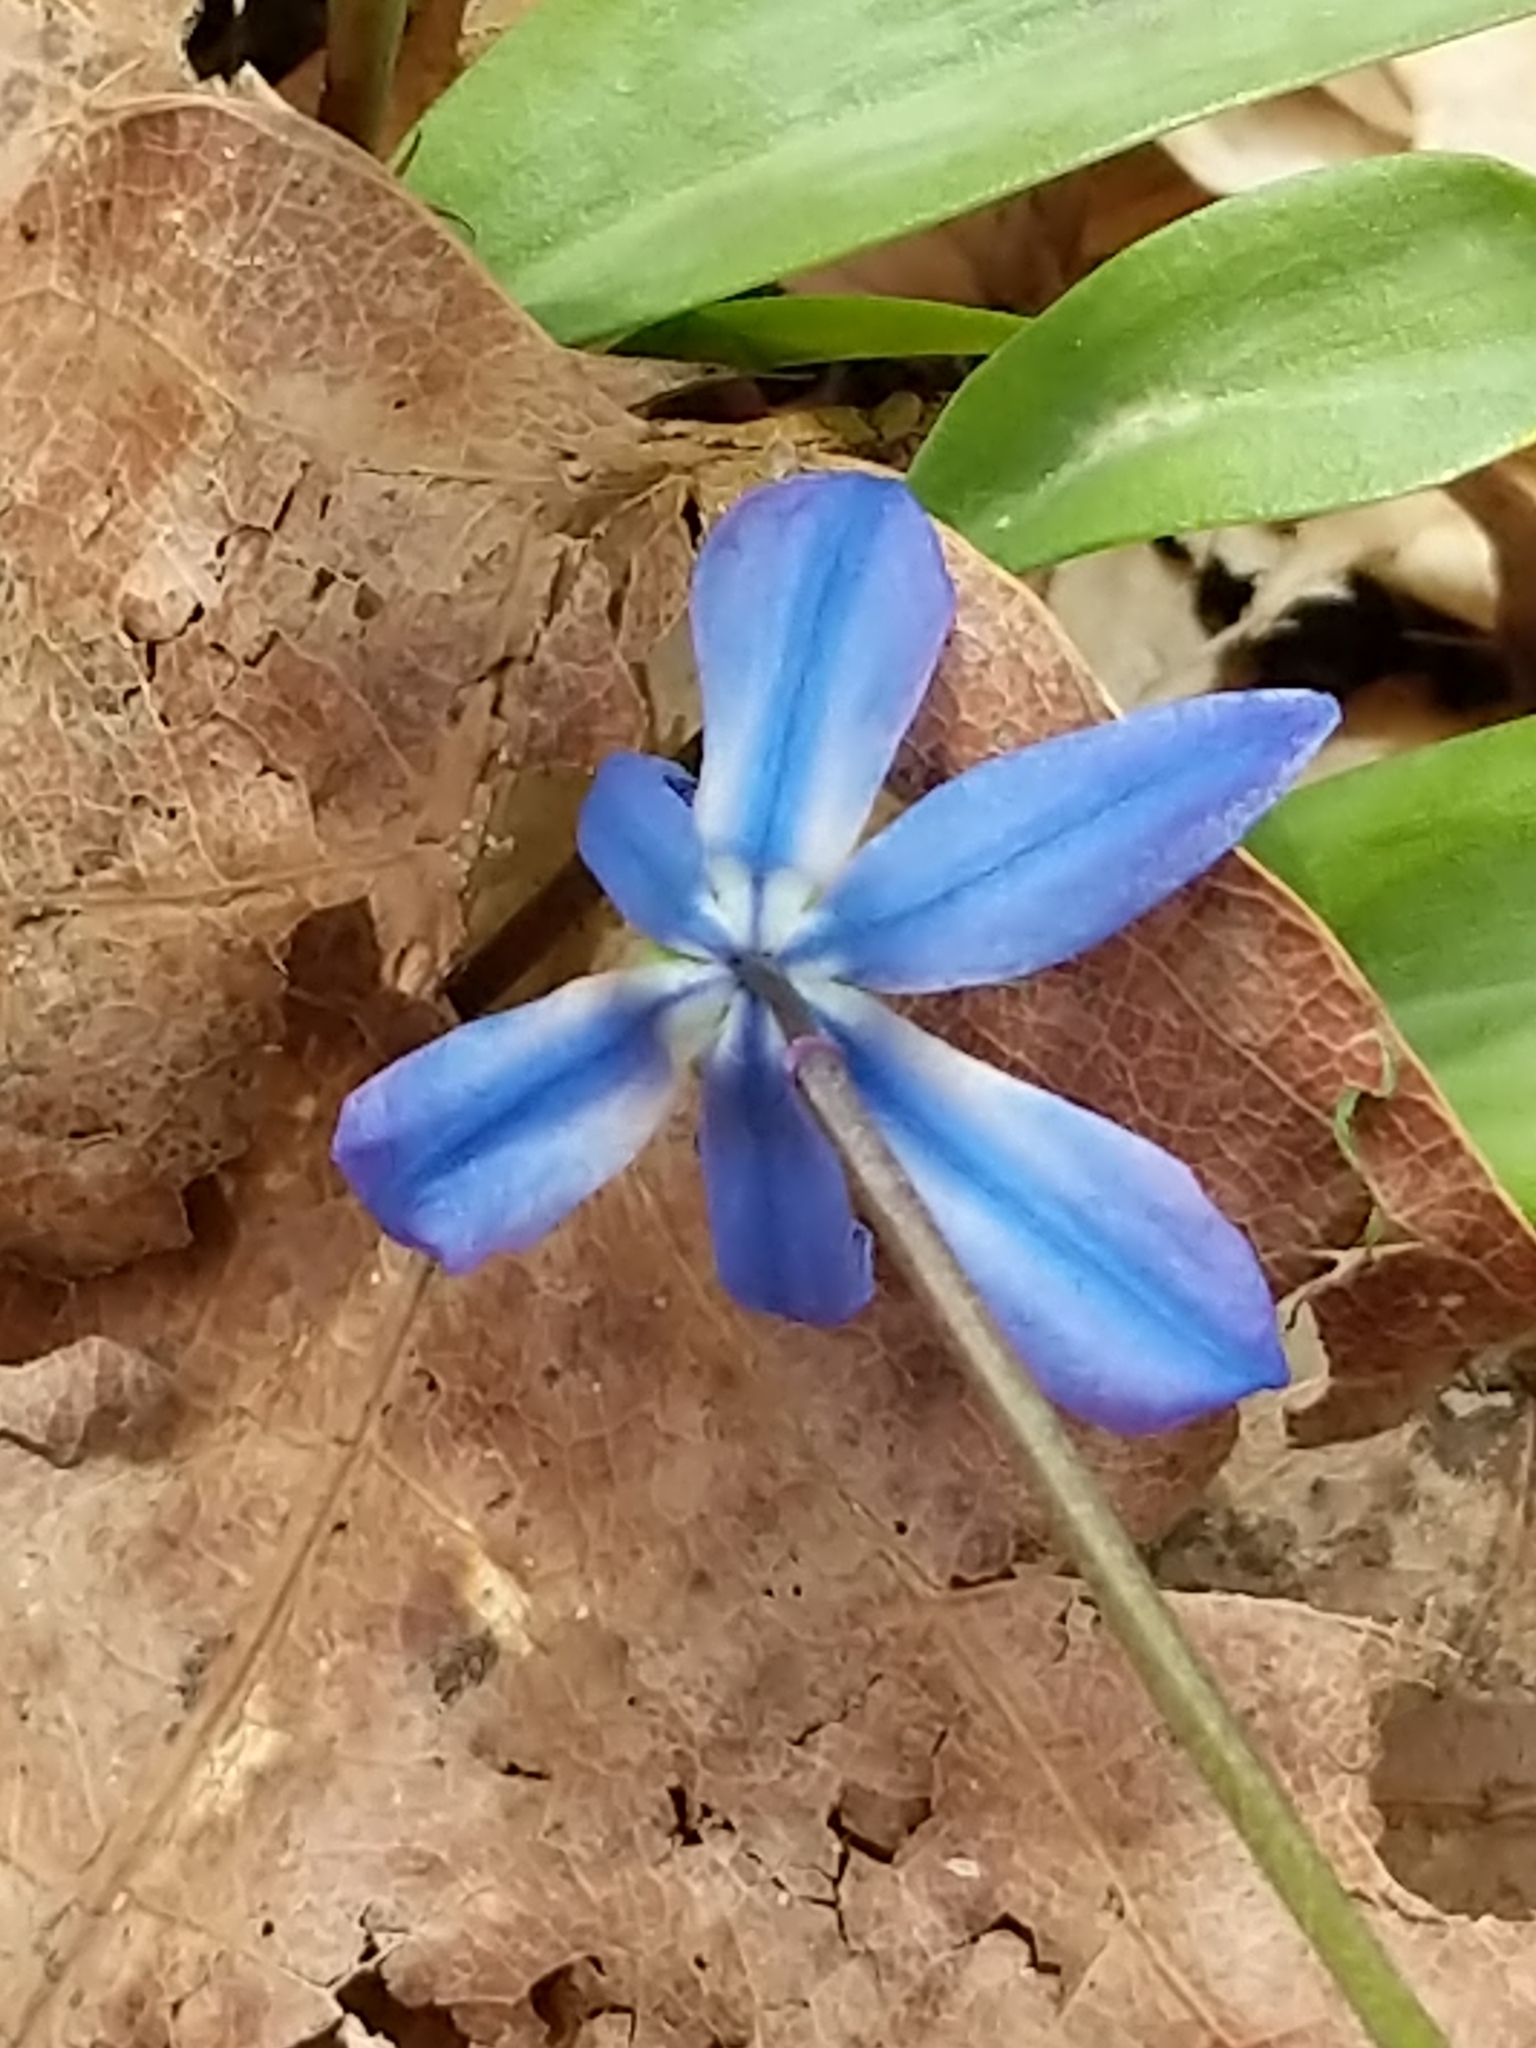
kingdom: Plantae
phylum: Tracheophyta
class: Liliopsida
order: Asparagales
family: Asparagaceae
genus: Scilla
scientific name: Scilla siberica
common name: Siberian squill
